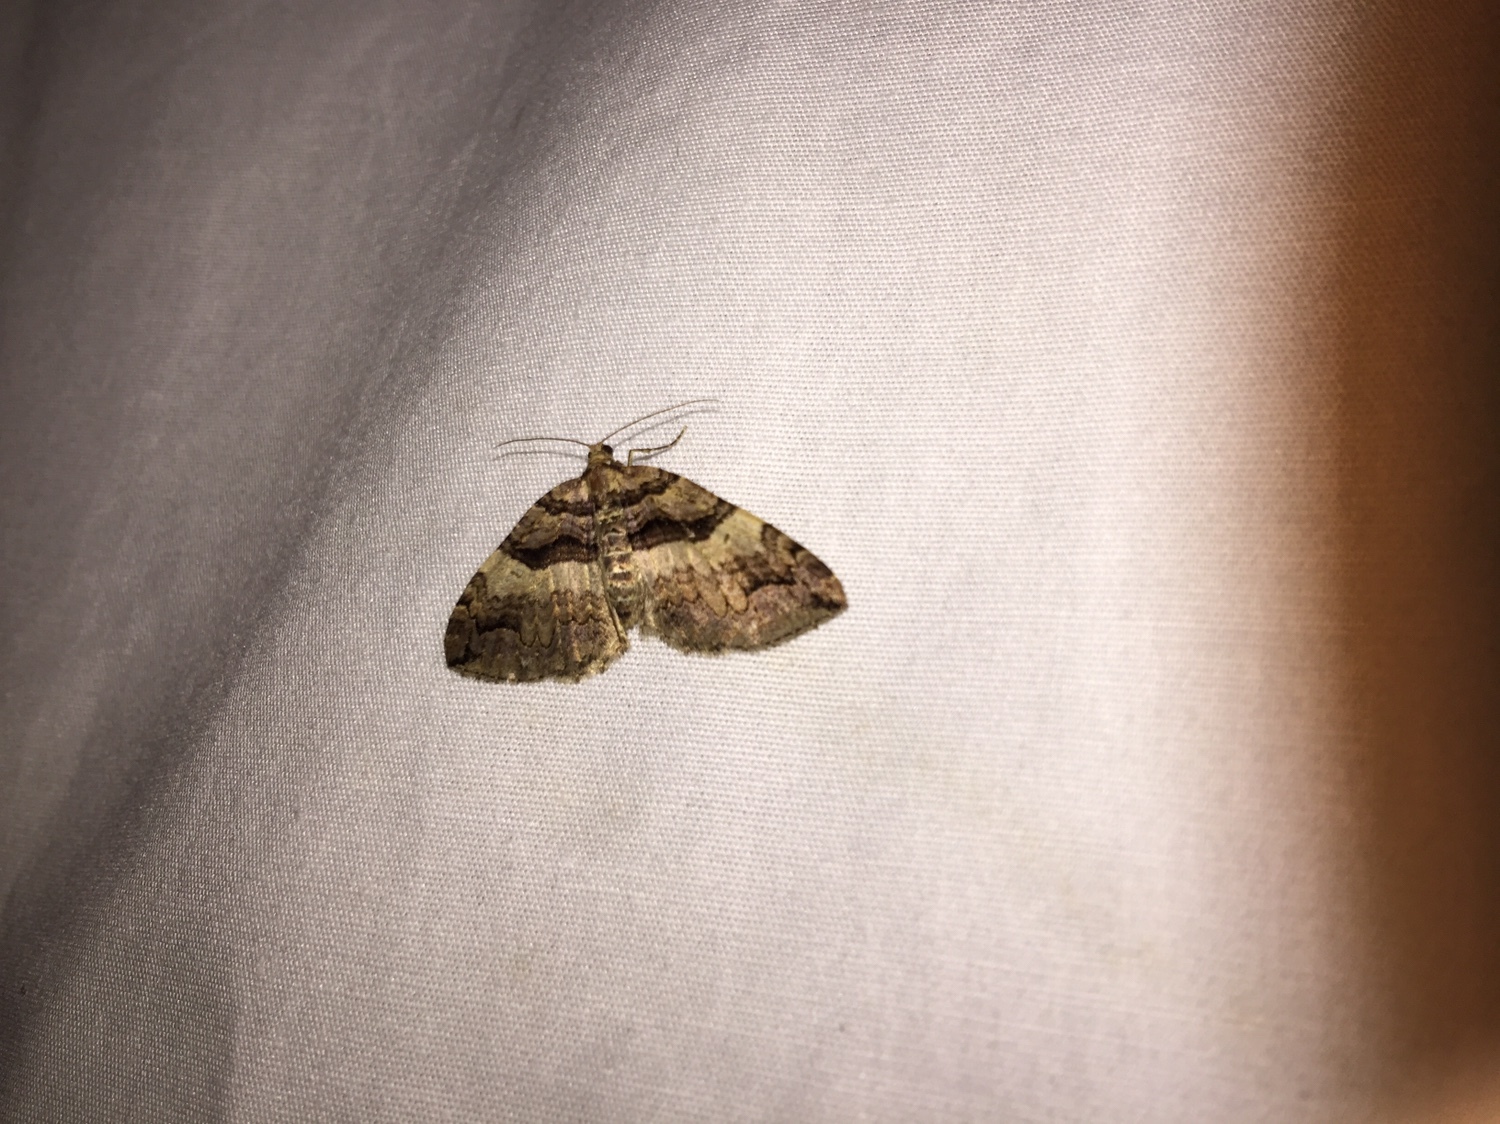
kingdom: Animalia
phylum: Arthropoda
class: Insecta
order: Lepidoptera
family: Geometridae
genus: Anticlea
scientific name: Anticlea vasiliata
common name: Variable carpet
